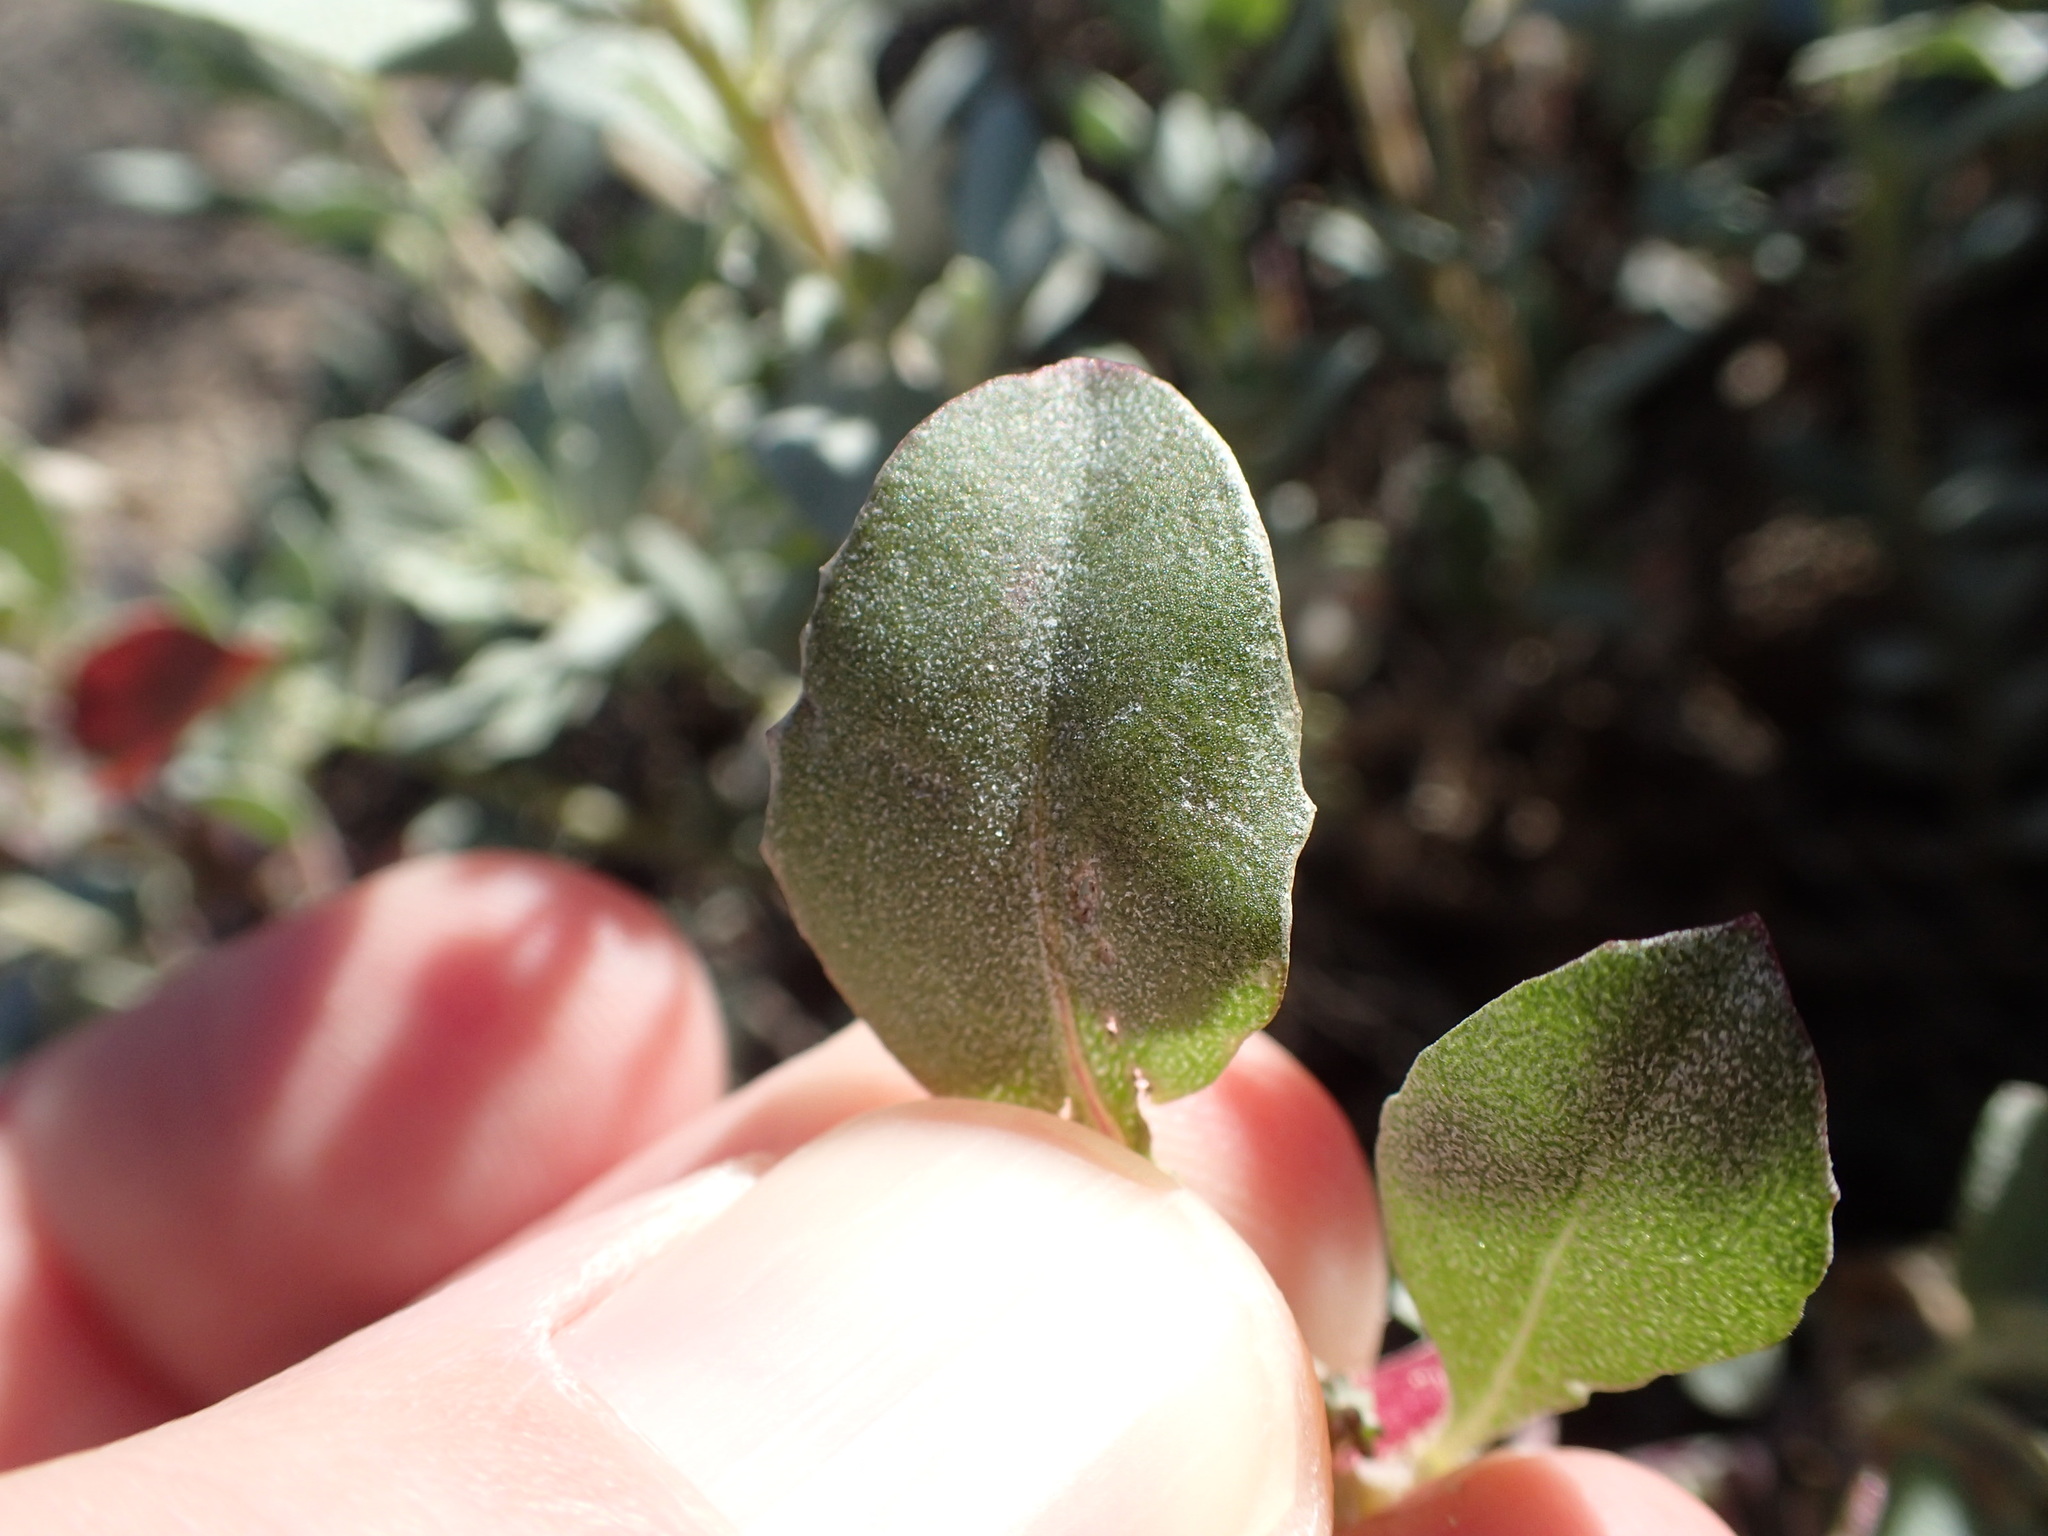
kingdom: Plantae
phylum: Tracheophyta
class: Magnoliopsida
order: Caryophyllales
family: Amaranthaceae
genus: Atriplex
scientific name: Atriplex barclayana
